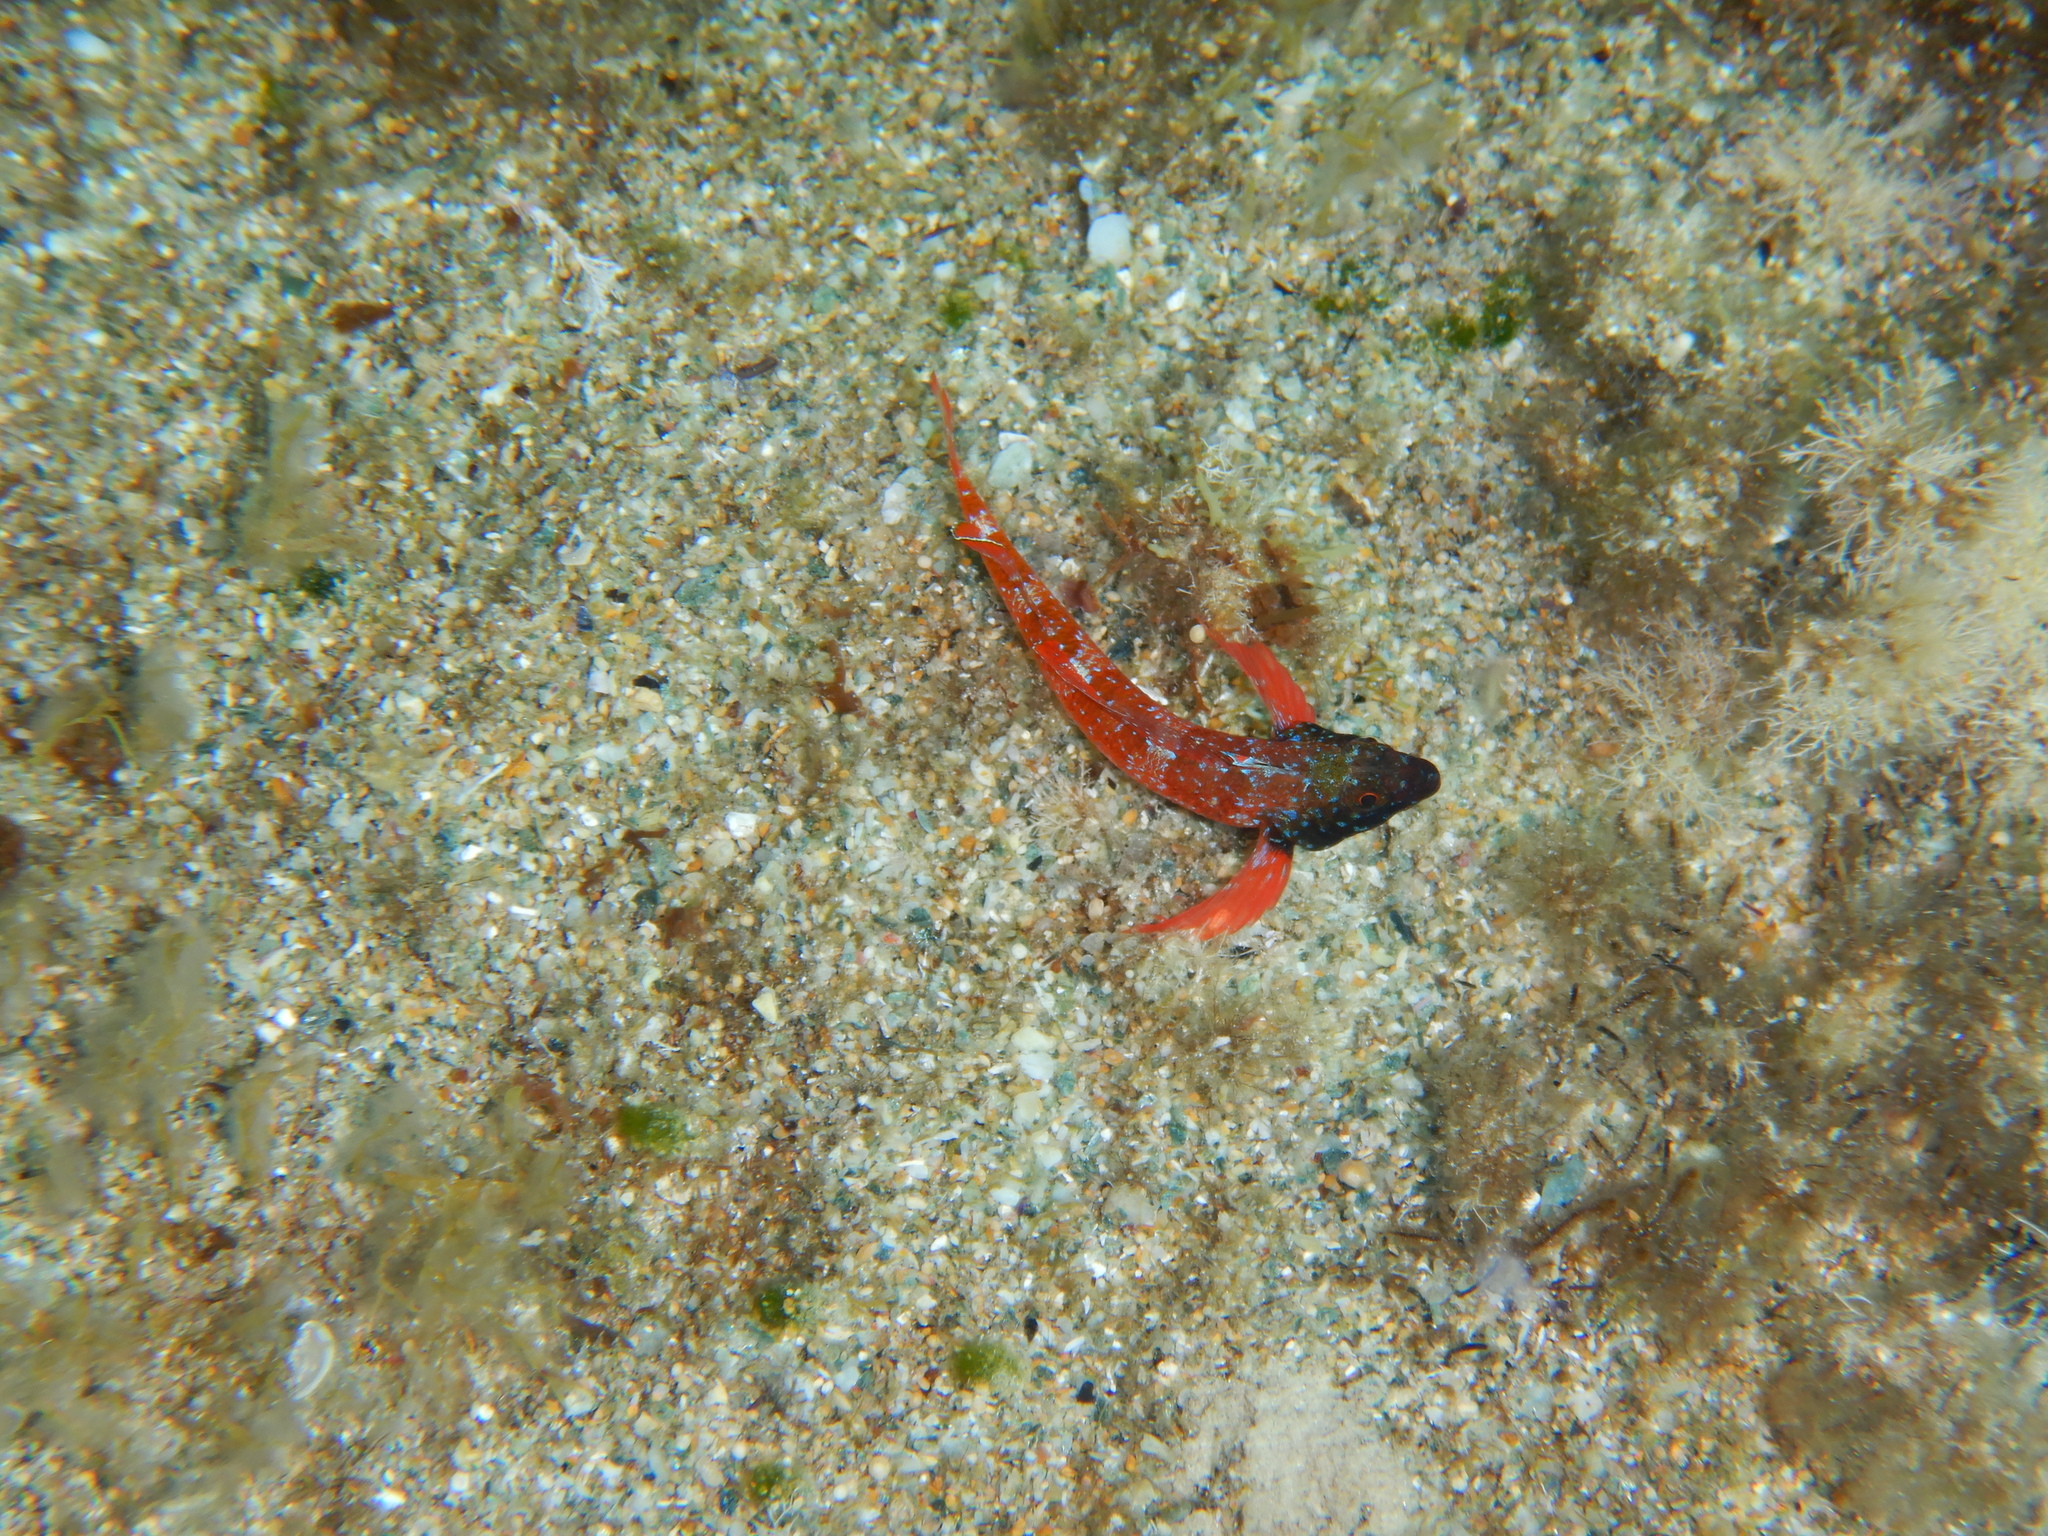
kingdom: Animalia
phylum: Chordata
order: Perciformes
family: Tripterygiidae
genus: Tripterygion
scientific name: Tripterygion tripteronotum
